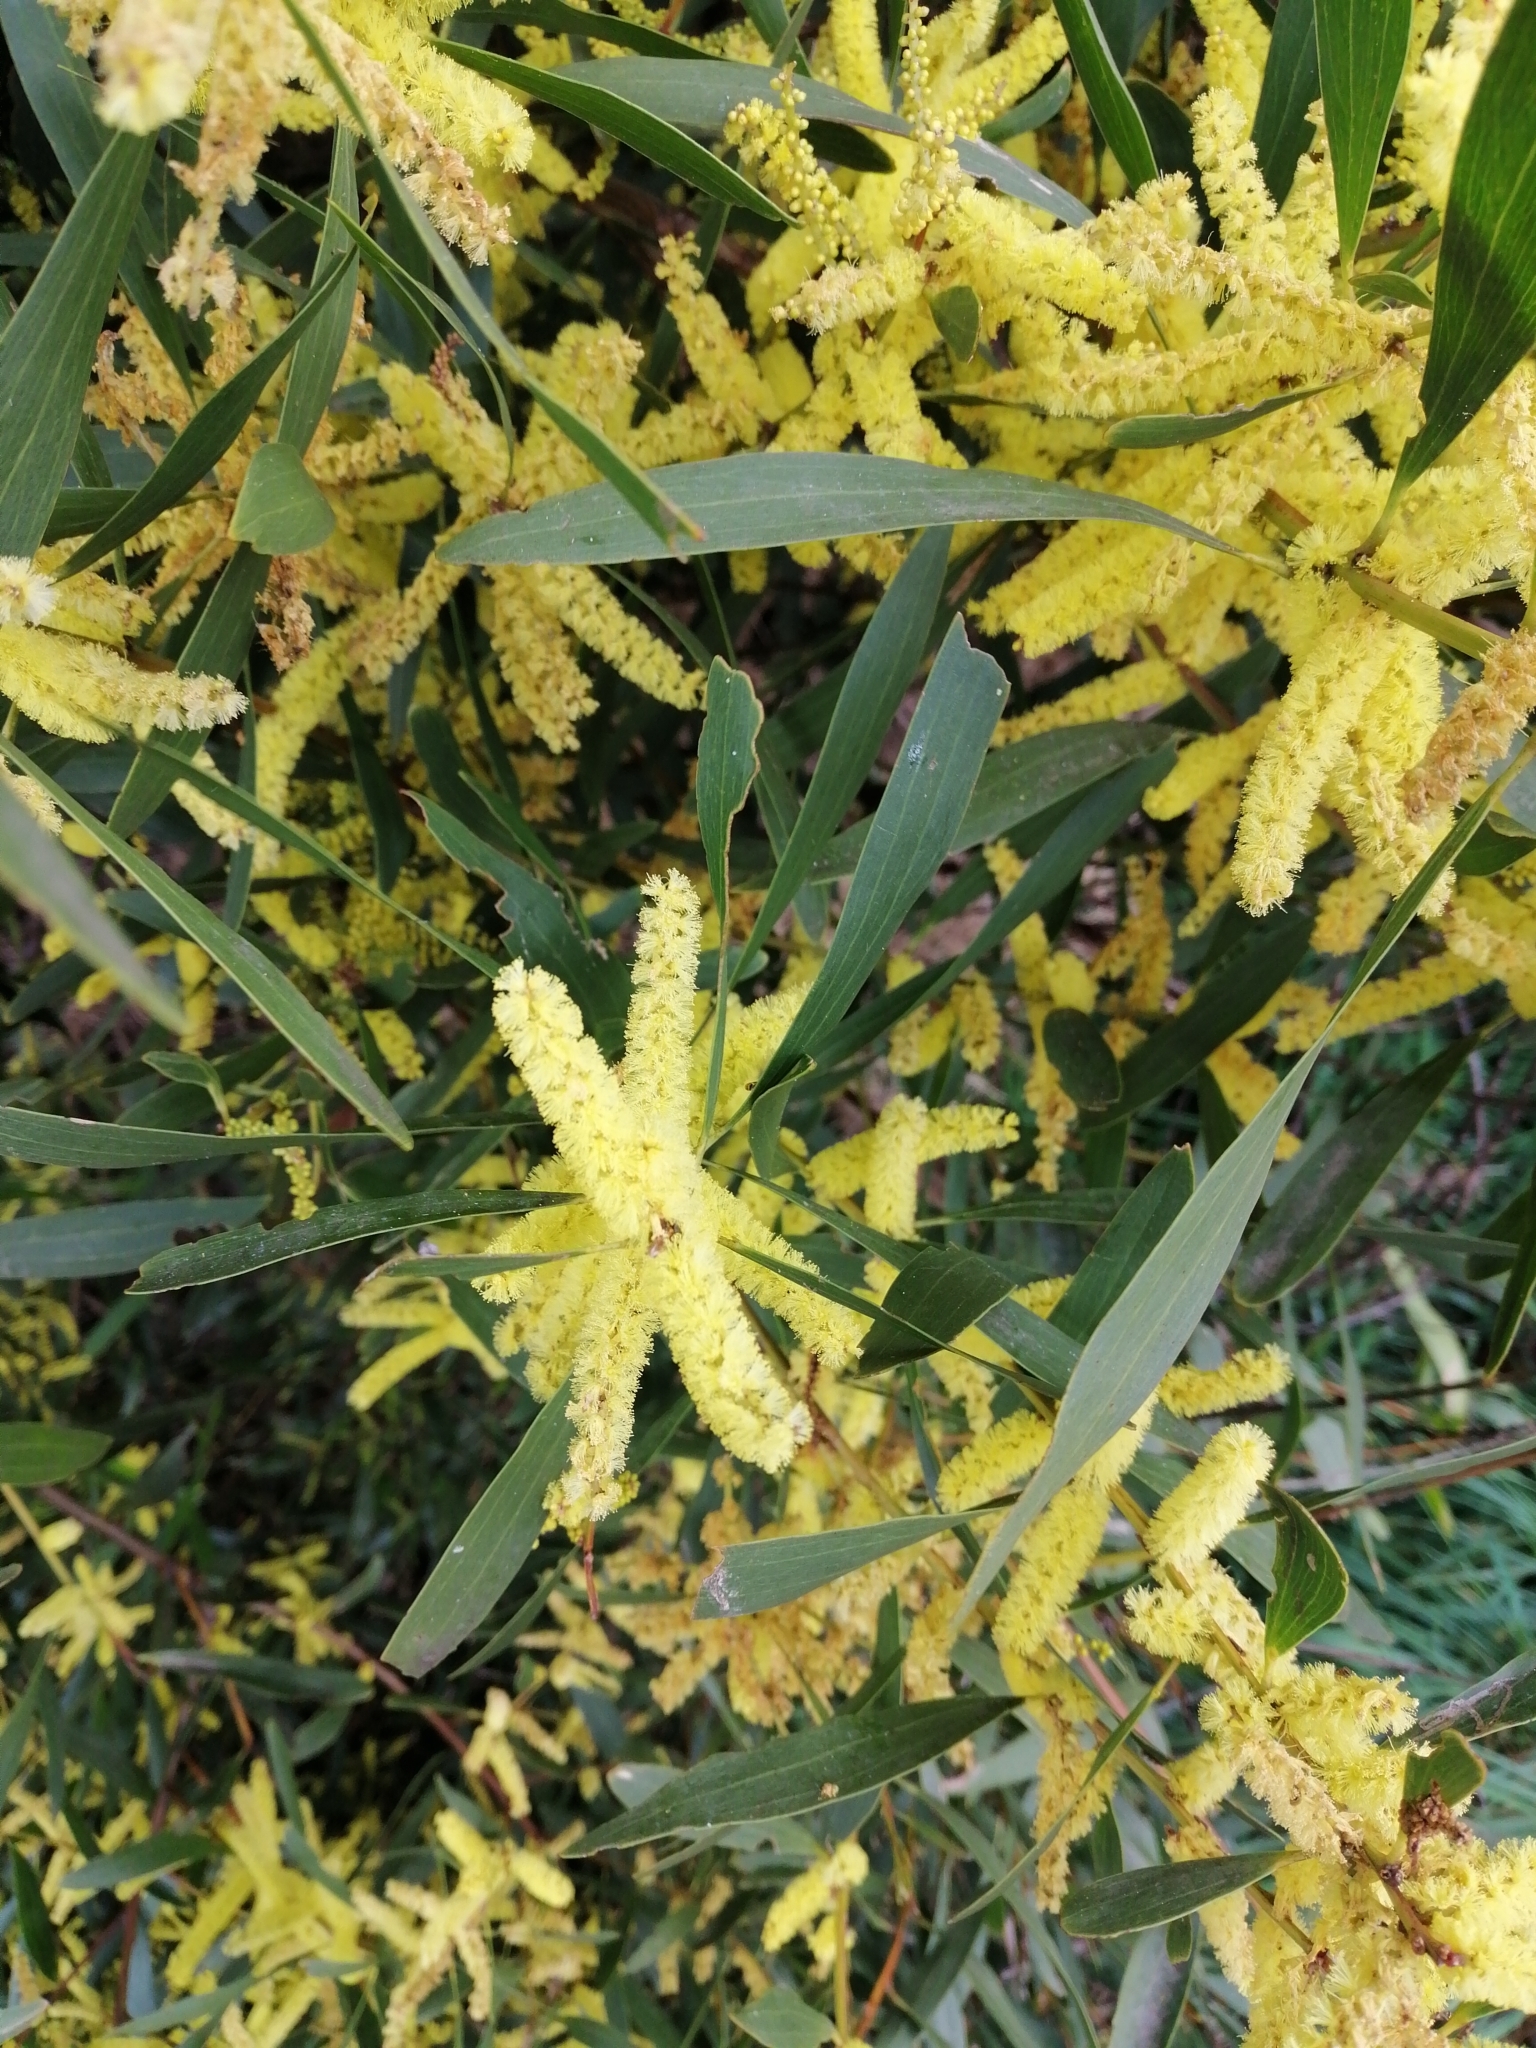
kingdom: Plantae
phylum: Tracheophyta
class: Magnoliopsida
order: Fabales
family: Fabaceae
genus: Acacia
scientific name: Acacia longifolia
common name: Sydney golden wattle
